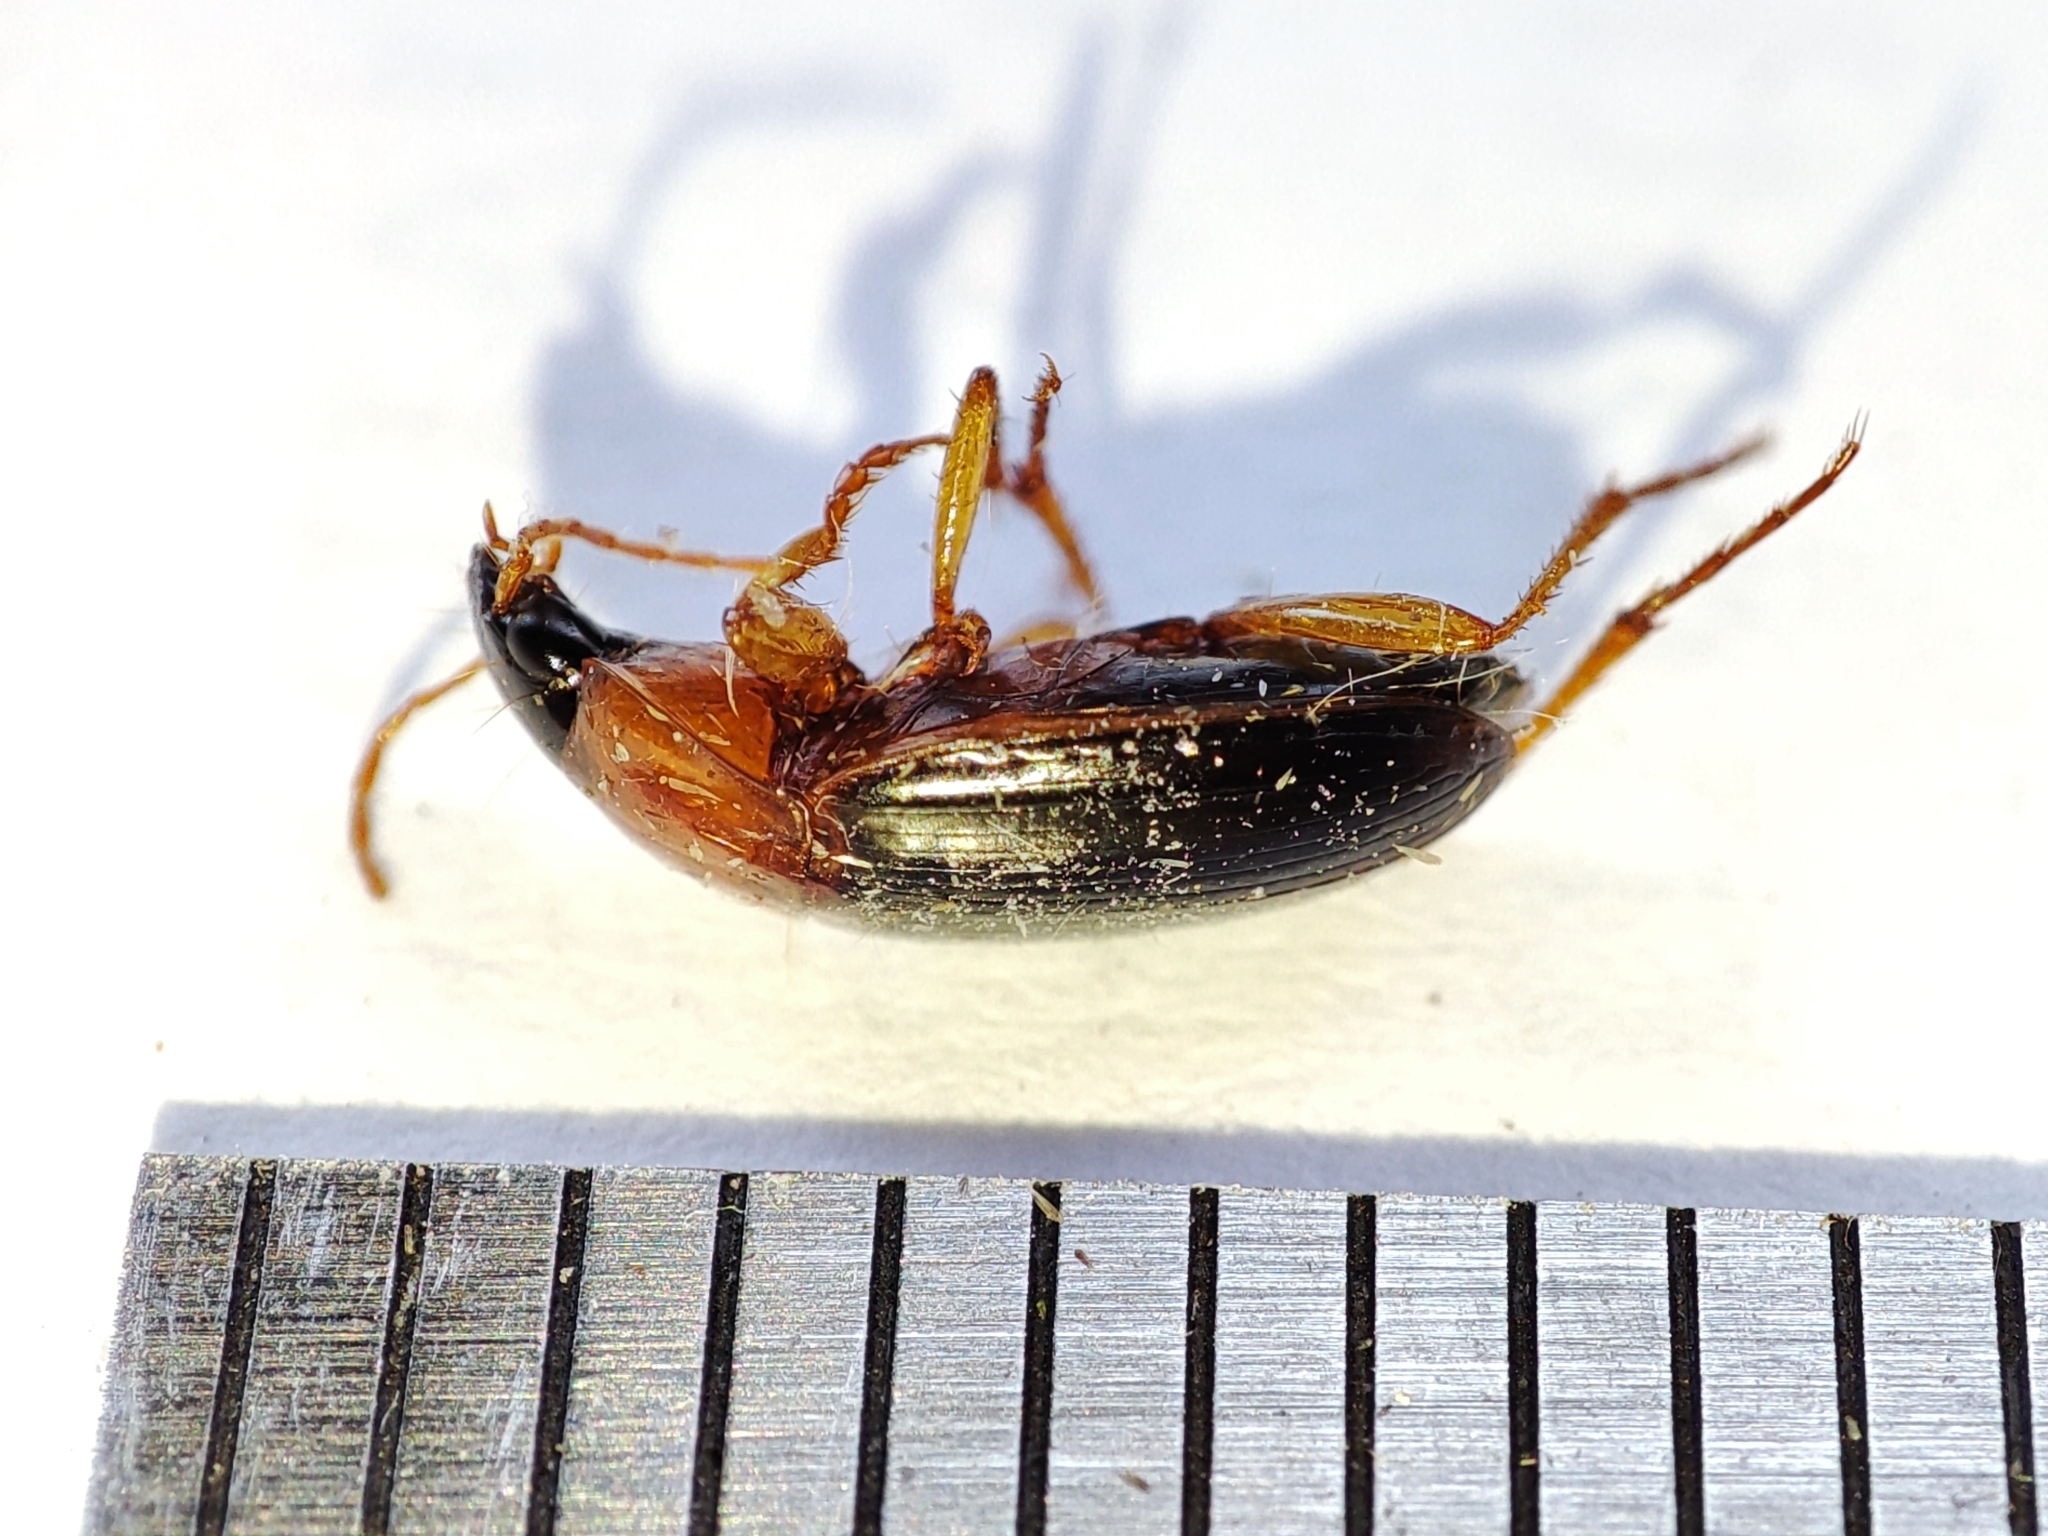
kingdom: Animalia
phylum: Arthropoda
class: Insecta
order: Coleoptera
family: Carabidae
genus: Calathus
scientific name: Calathus melanocephalus
